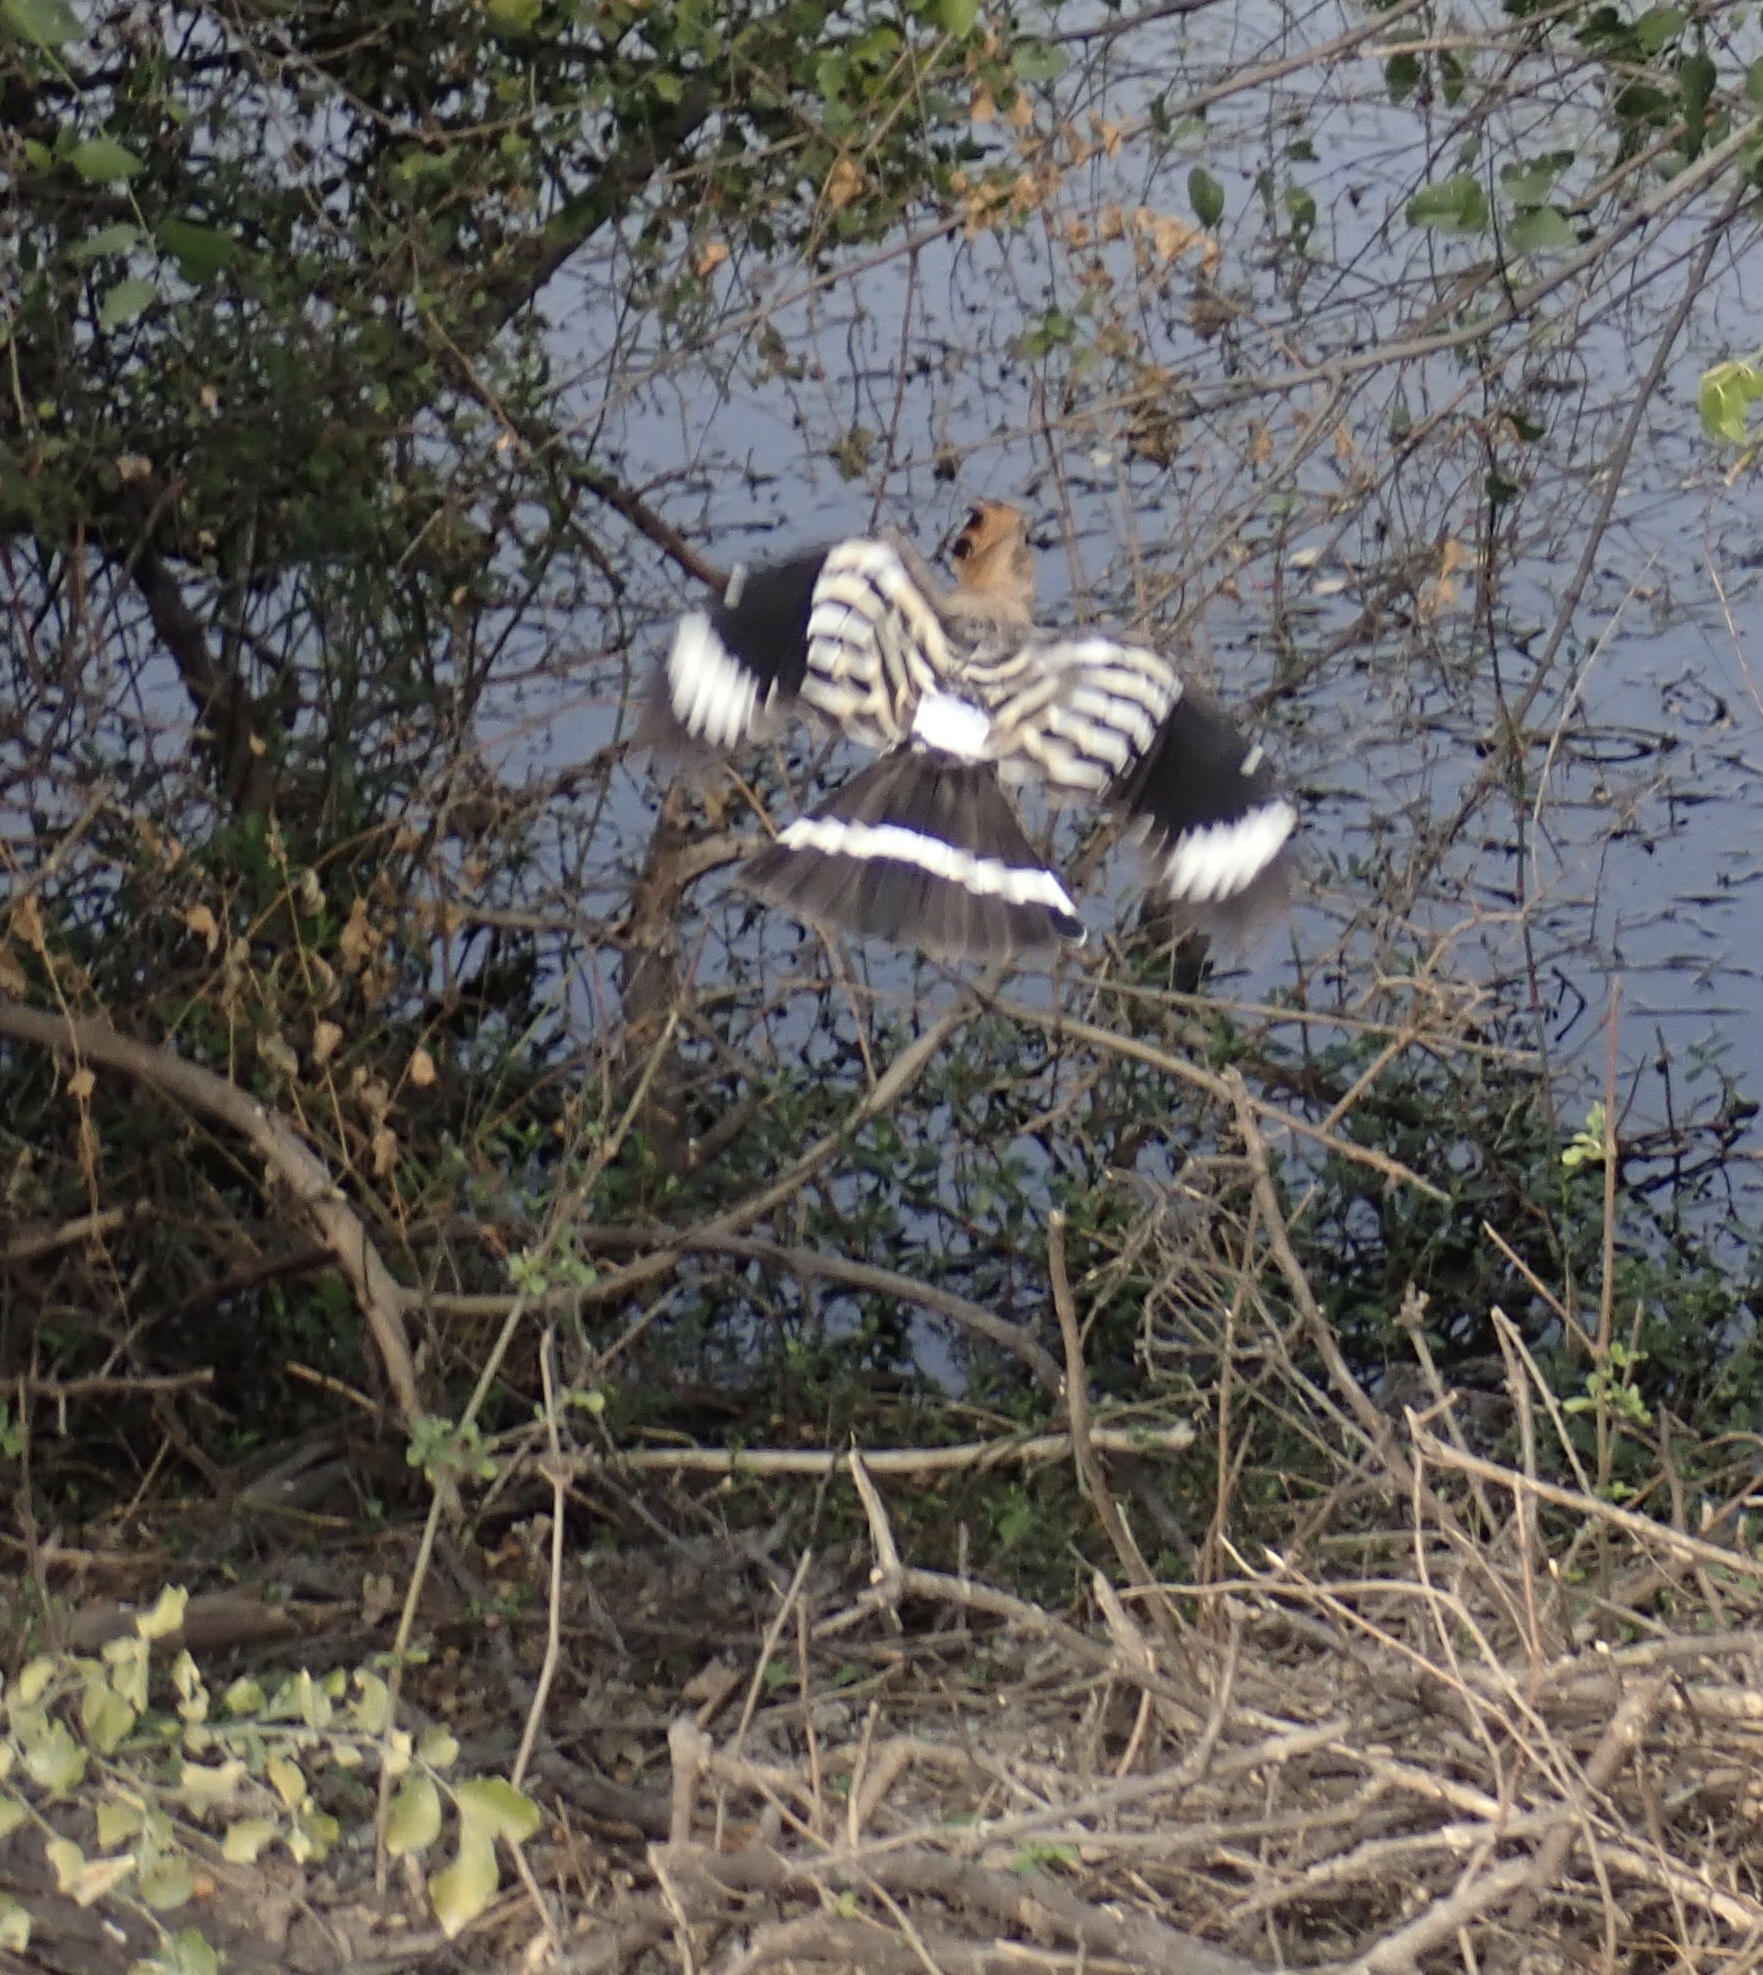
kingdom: Animalia
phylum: Chordata
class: Aves
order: Bucerotiformes
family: Upupidae
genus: Upupa
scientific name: Upupa epops
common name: Eurasian hoopoe
